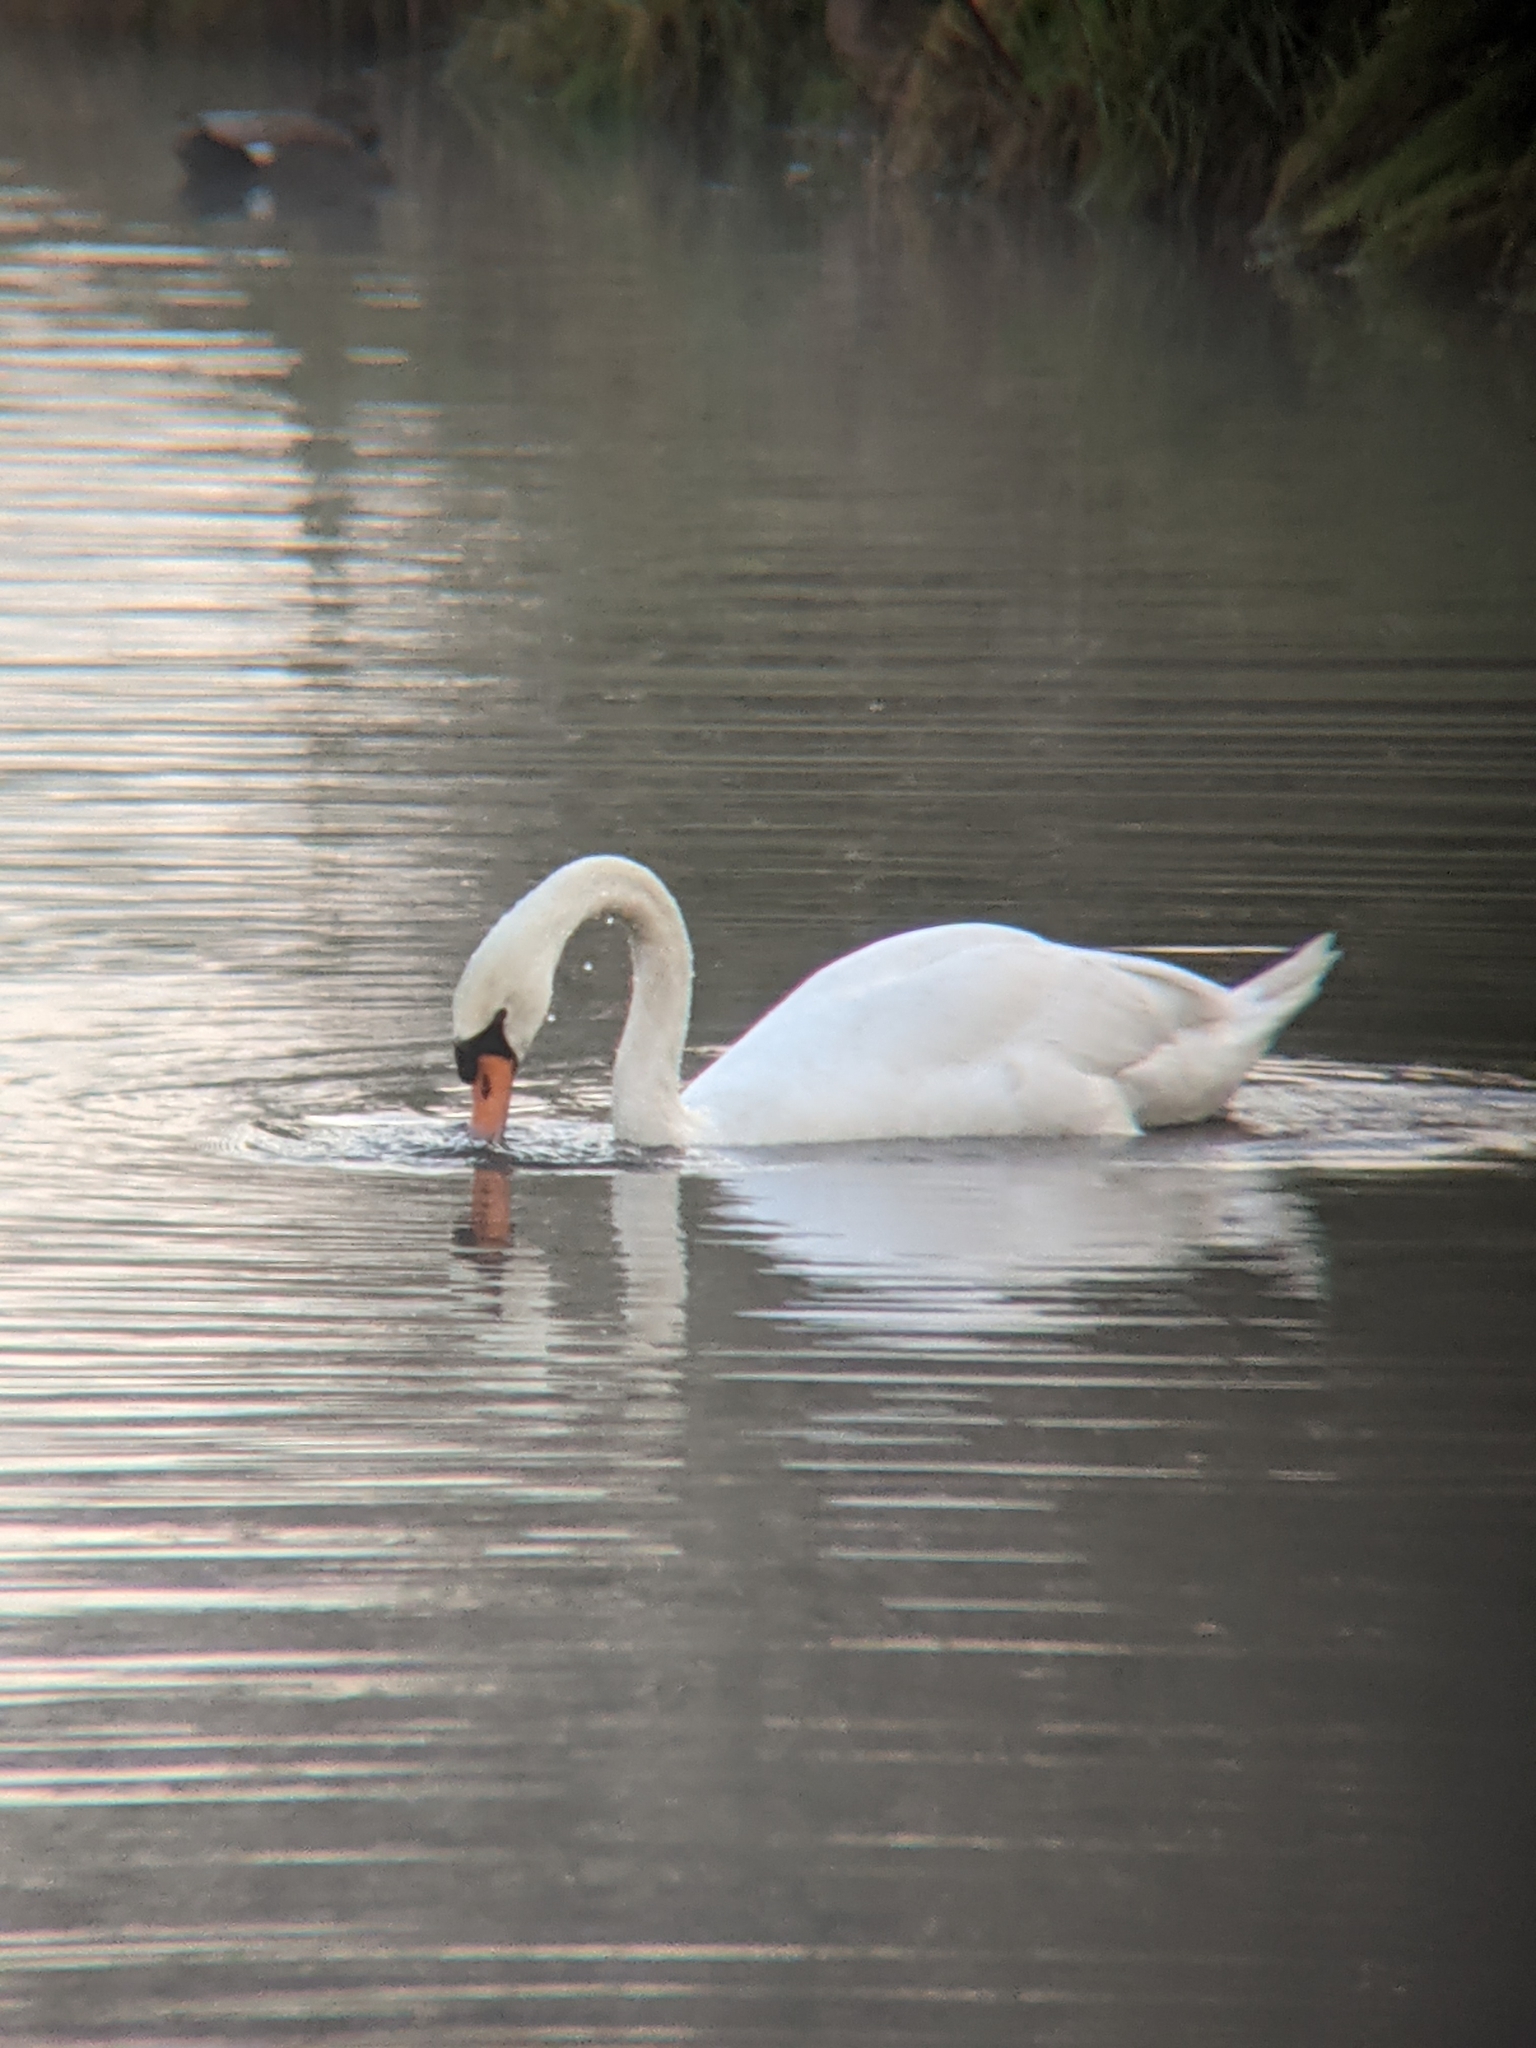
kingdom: Animalia
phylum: Chordata
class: Aves
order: Anseriformes
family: Anatidae
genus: Cygnus
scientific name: Cygnus olor
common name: Mute swan
